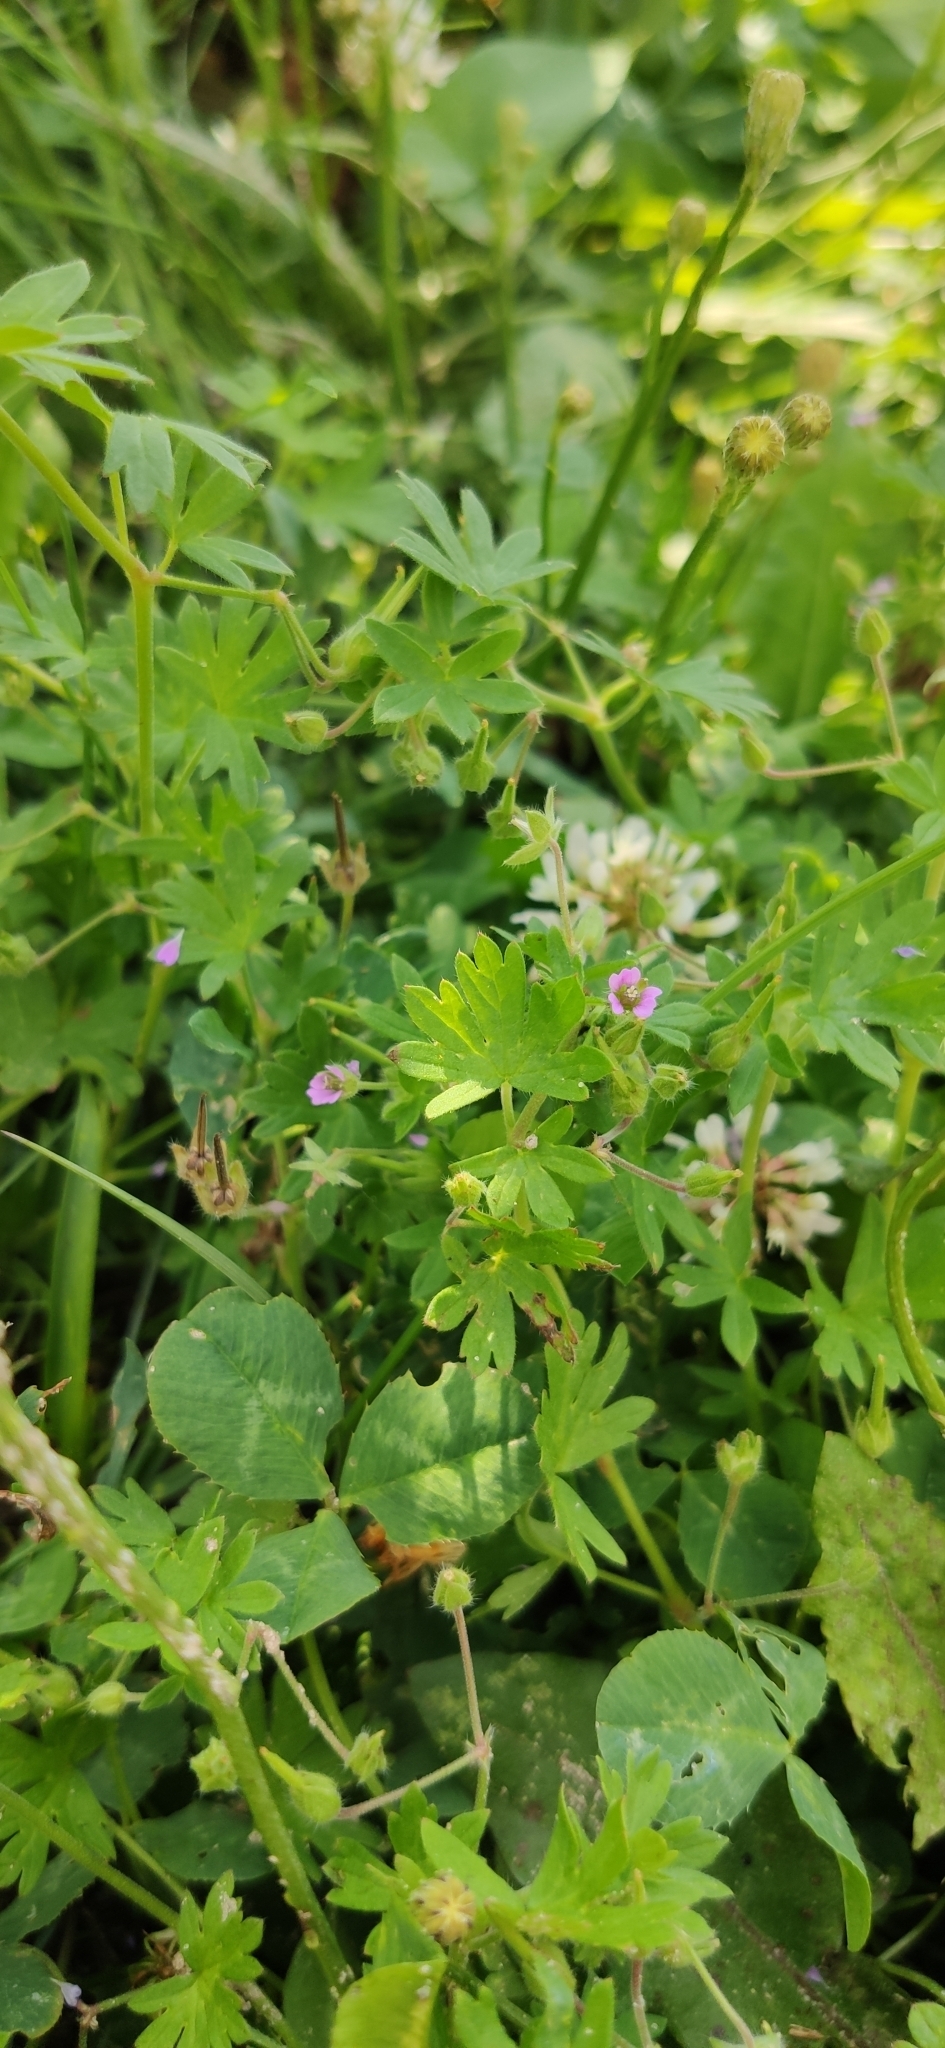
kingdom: Plantae
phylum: Tracheophyta
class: Magnoliopsida
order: Geraniales
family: Geraniaceae
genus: Geranium
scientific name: Geranium pusillum
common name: Small geranium
